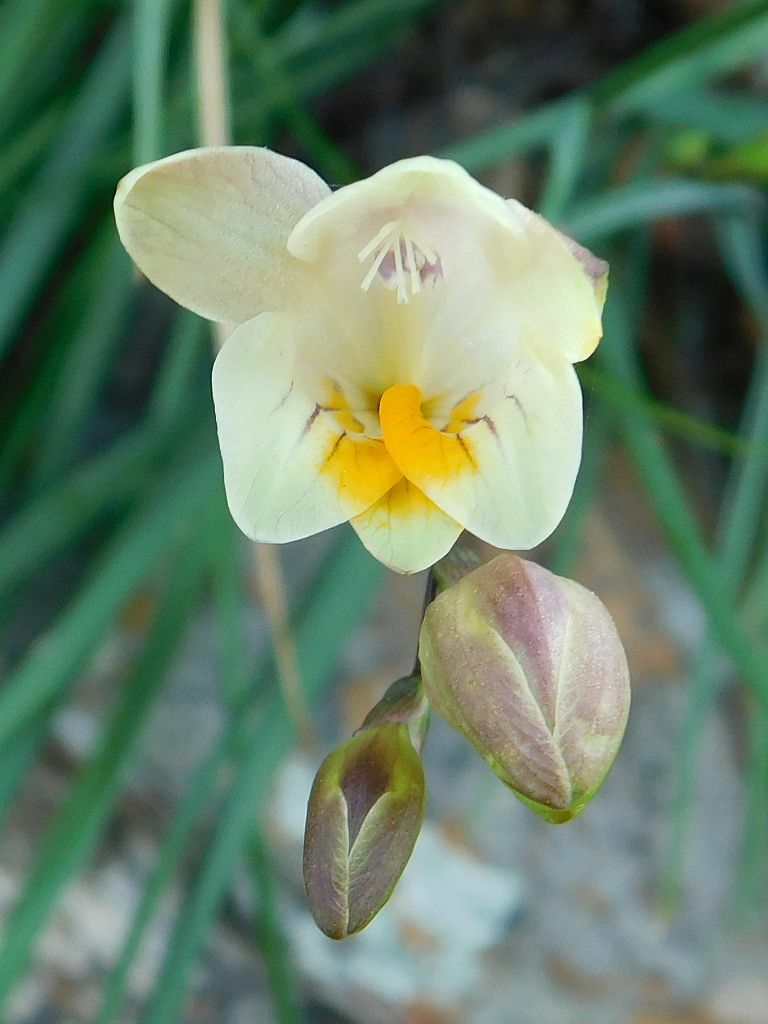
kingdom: Plantae
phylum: Tracheophyta
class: Liliopsida
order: Asparagales
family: Iridaceae
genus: Freesia
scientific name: Freesia refracta
